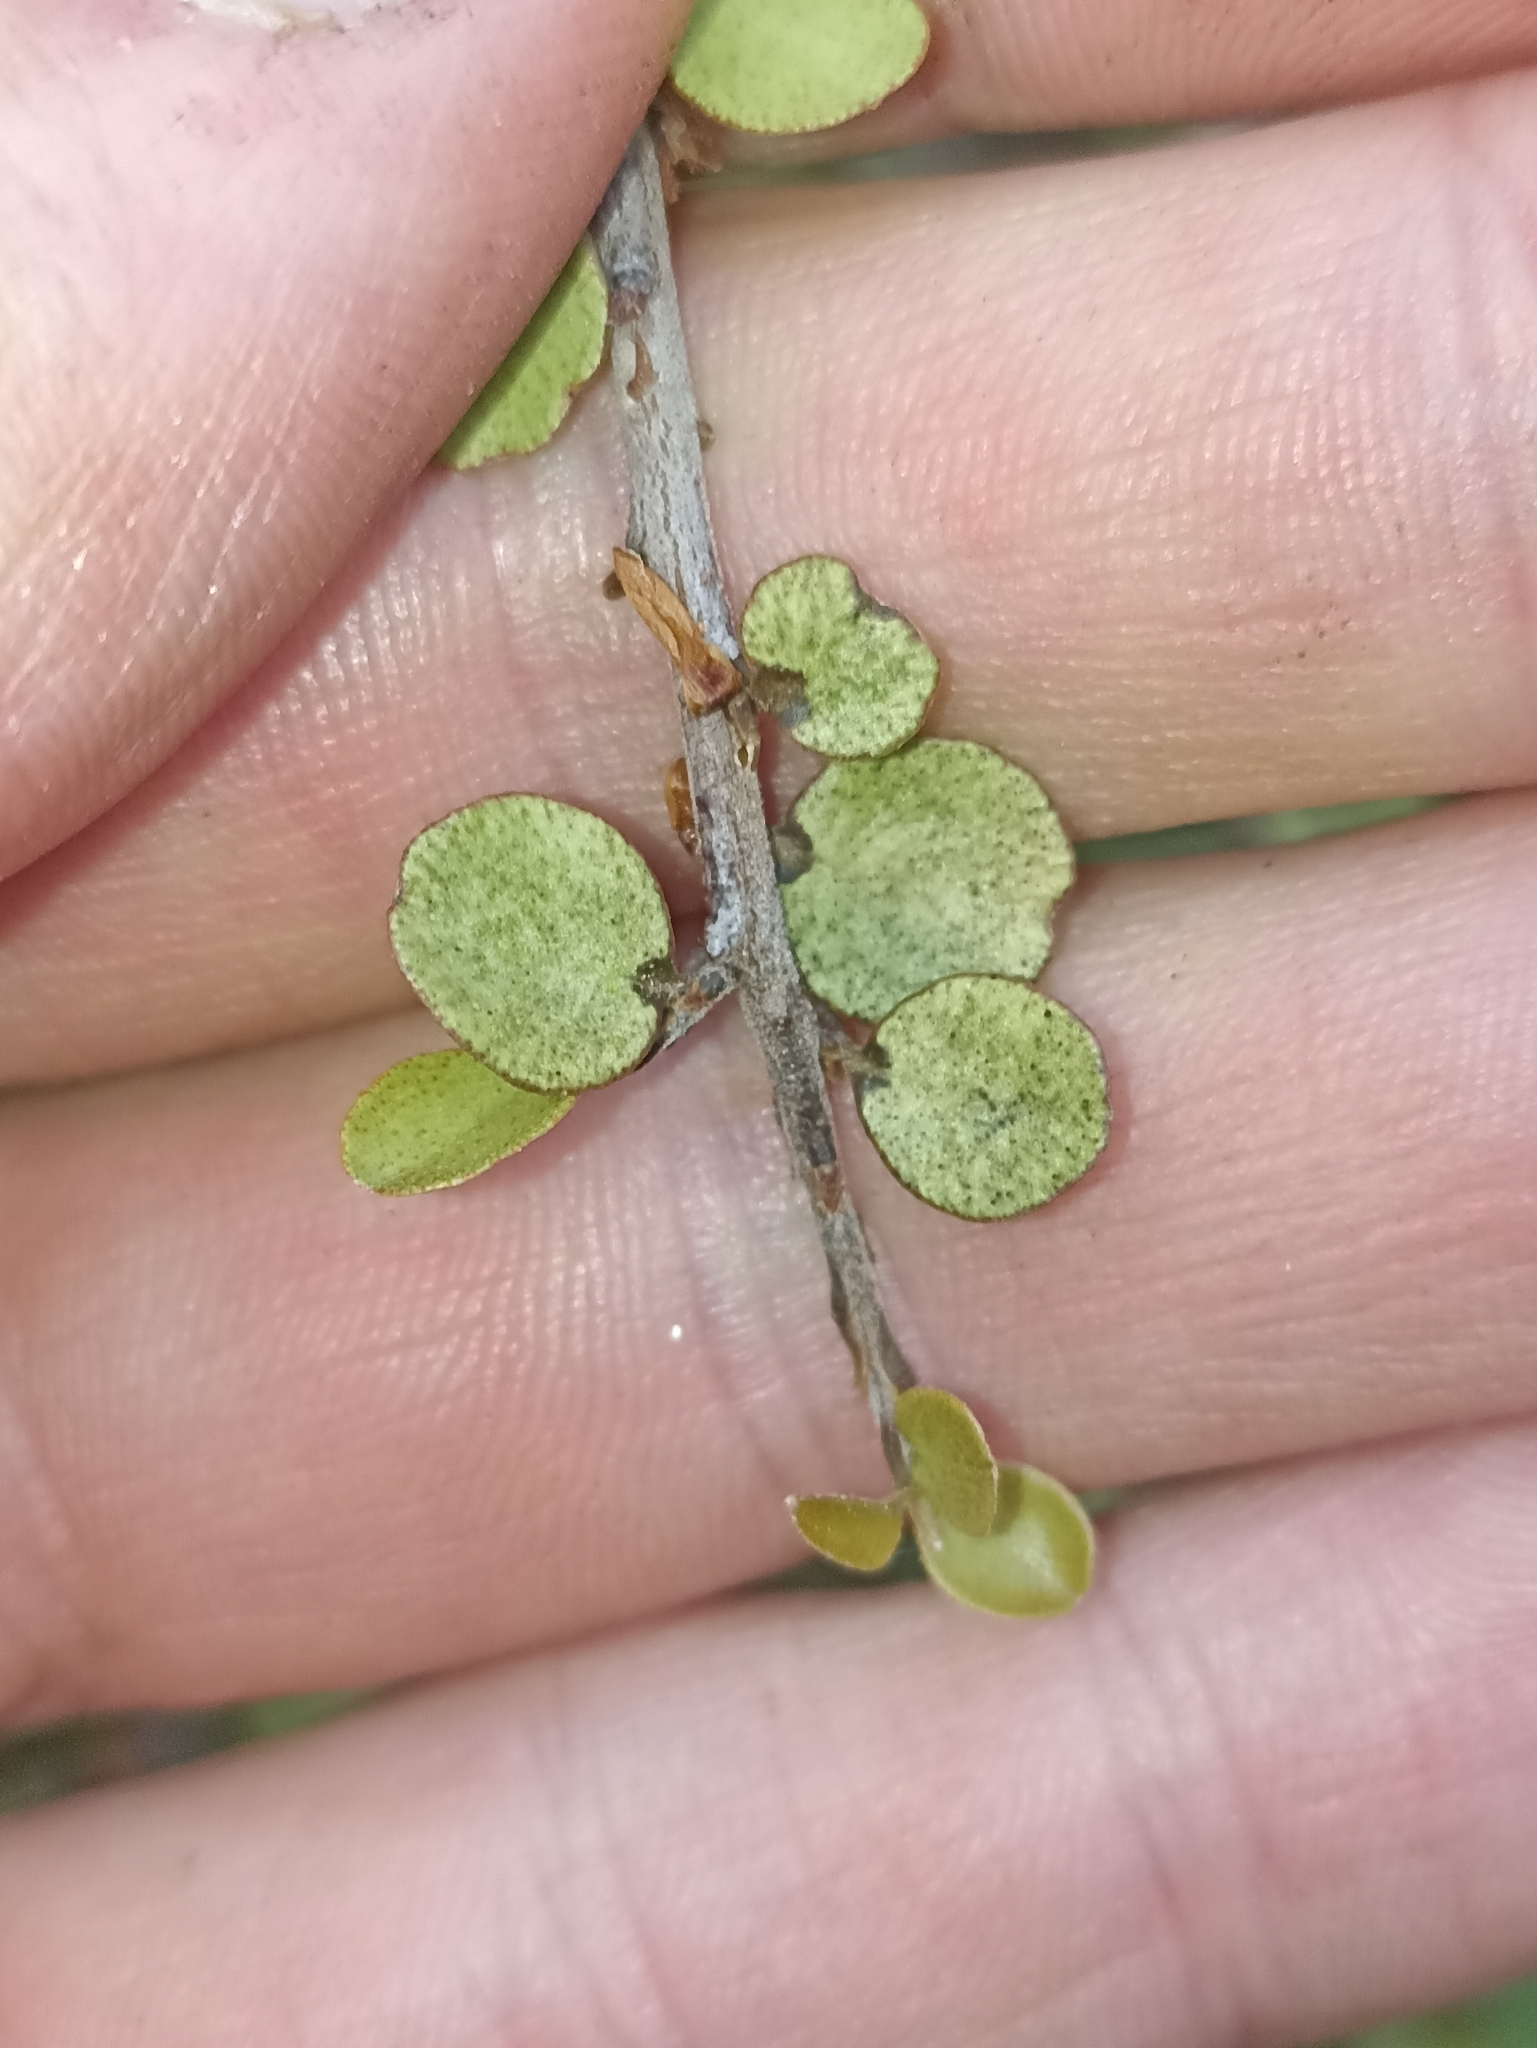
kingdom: Plantae
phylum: Tracheophyta
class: Magnoliopsida
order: Ericales
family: Primulaceae
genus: Myrsine
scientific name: Myrsine divaricata
